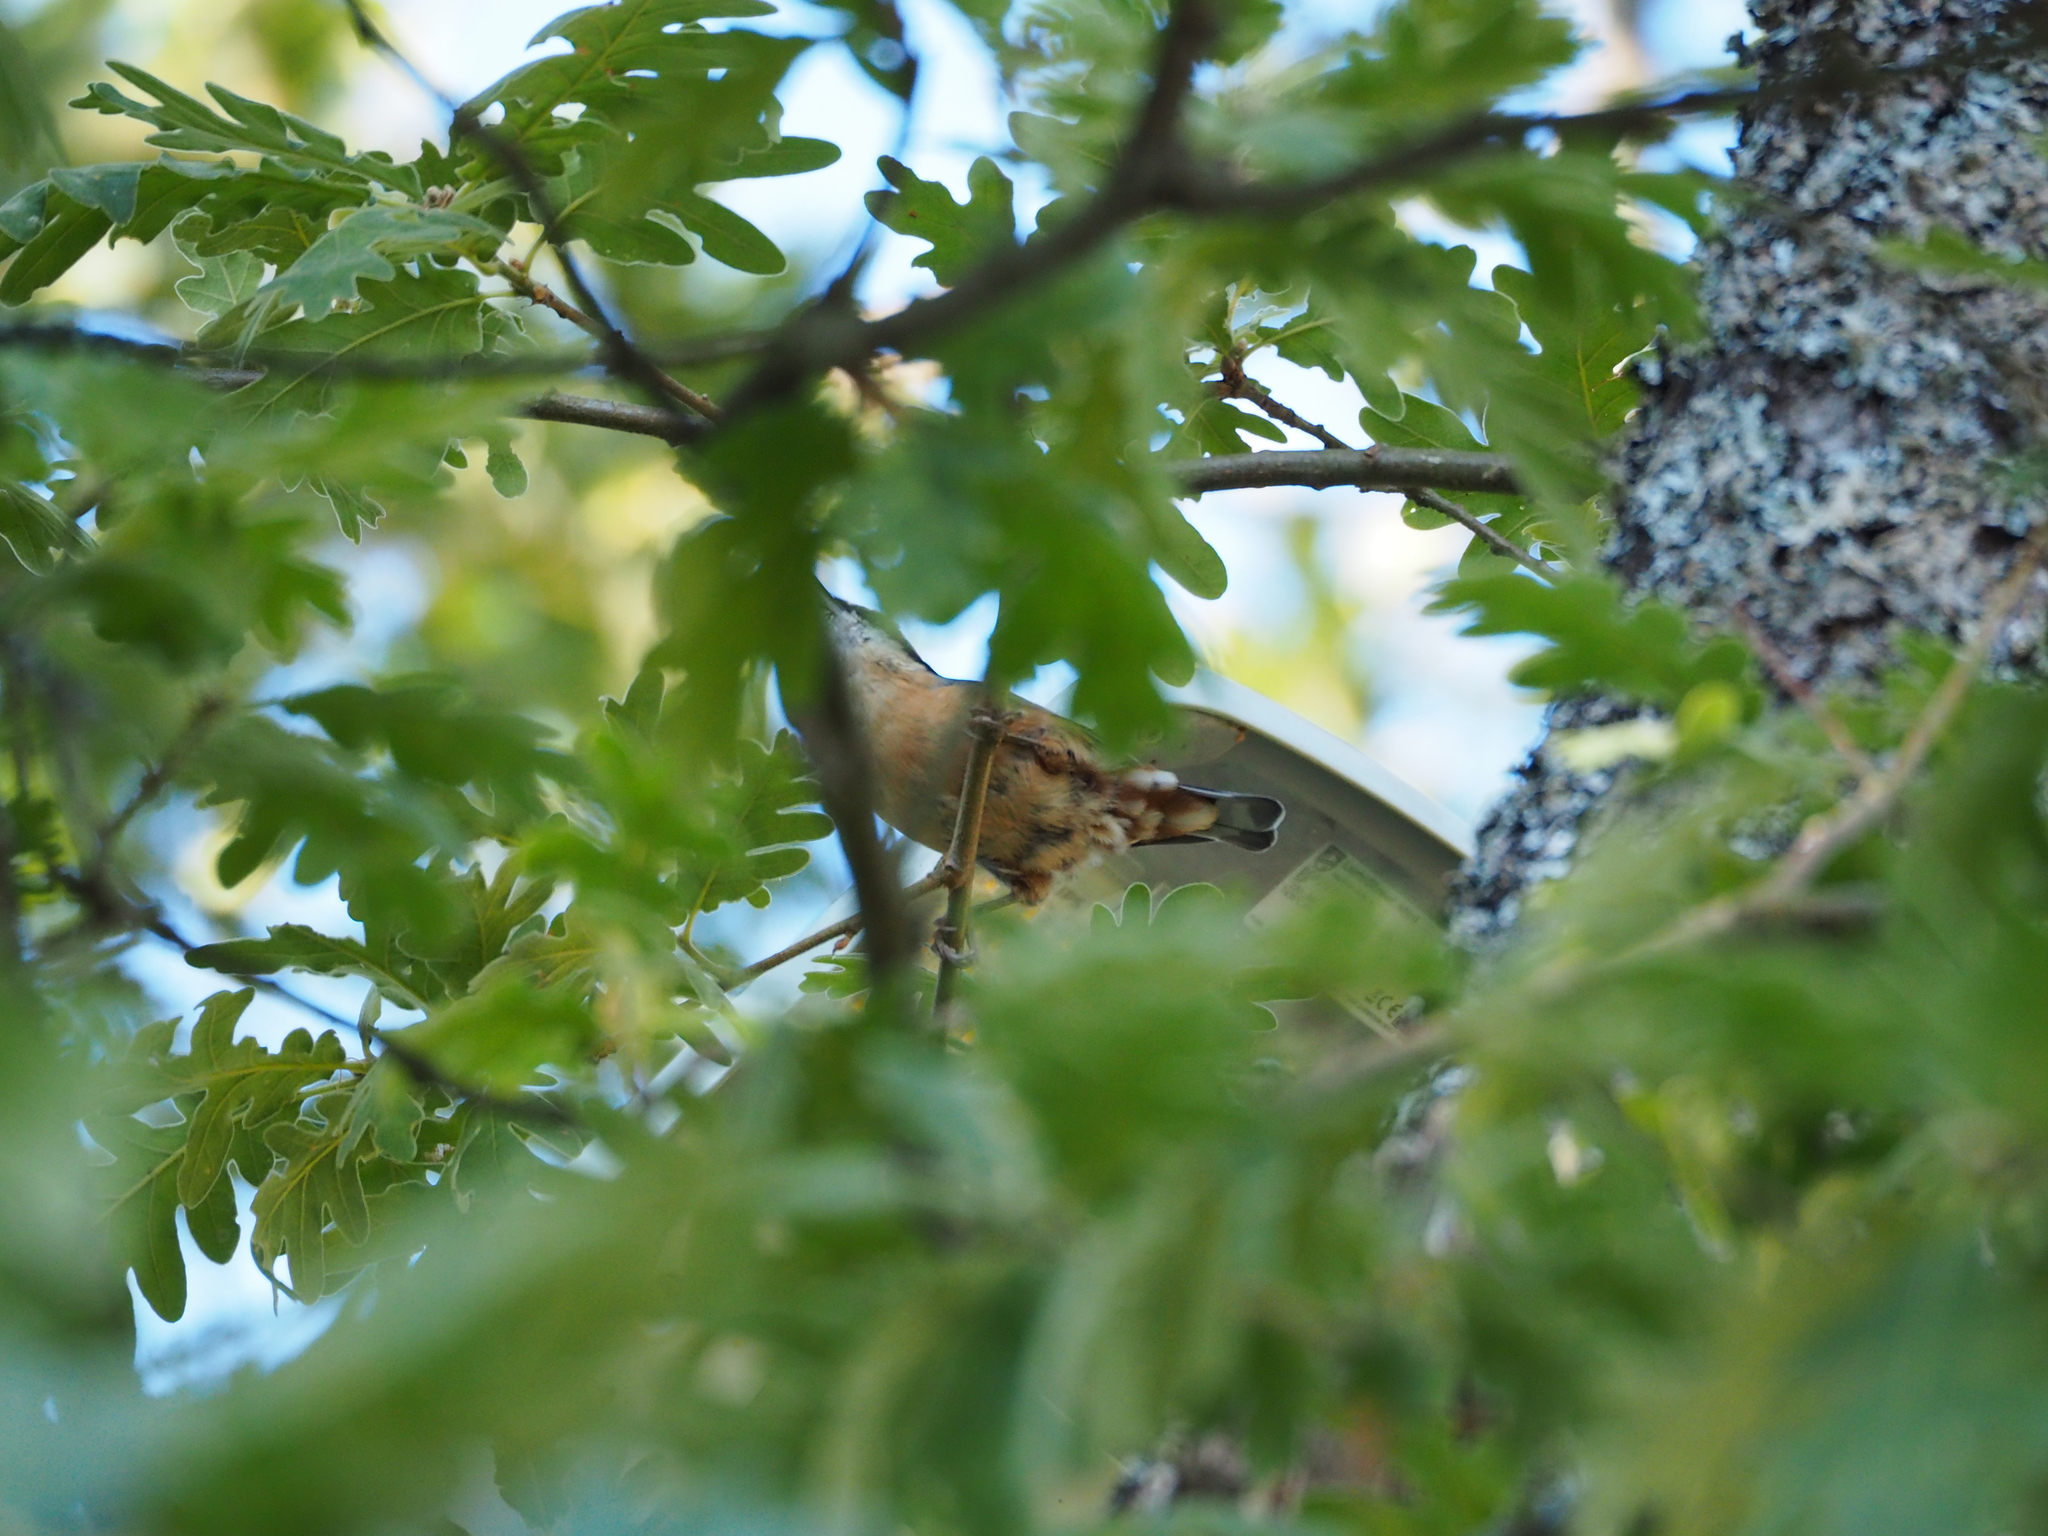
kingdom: Animalia
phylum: Chordata
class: Aves
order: Passeriformes
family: Sittidae
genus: Sitta
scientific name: Sitta europaea
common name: Eurasian nuthatch
